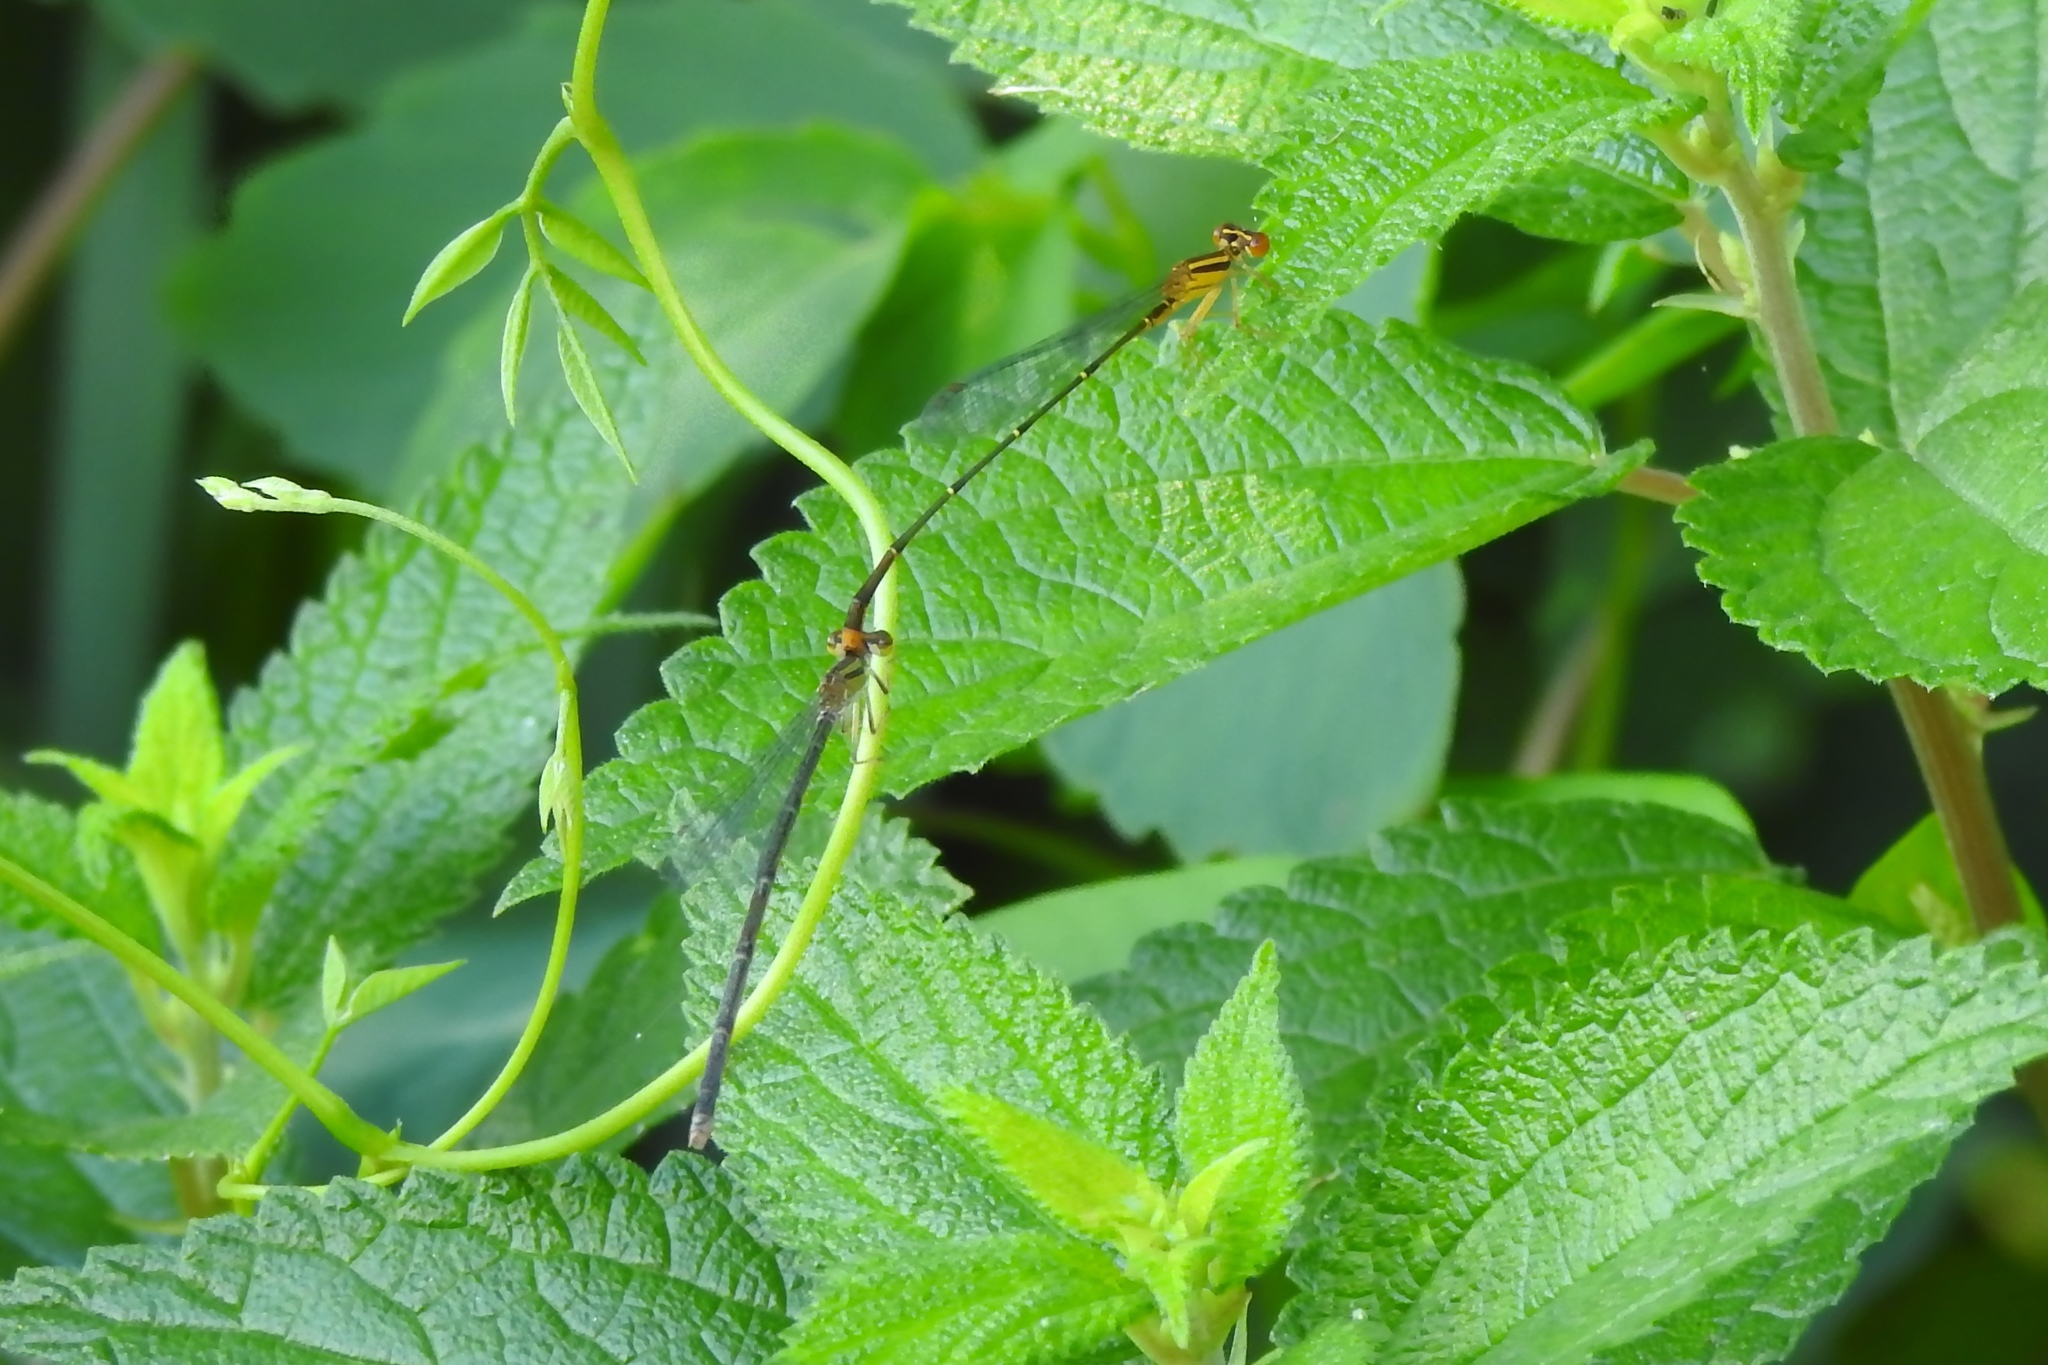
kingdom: Animalia
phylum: Arthropoda
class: Insecta
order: Odonata
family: Coenagrionidae
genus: Enallagma
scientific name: Enallagma signatum
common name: Orange bluet
